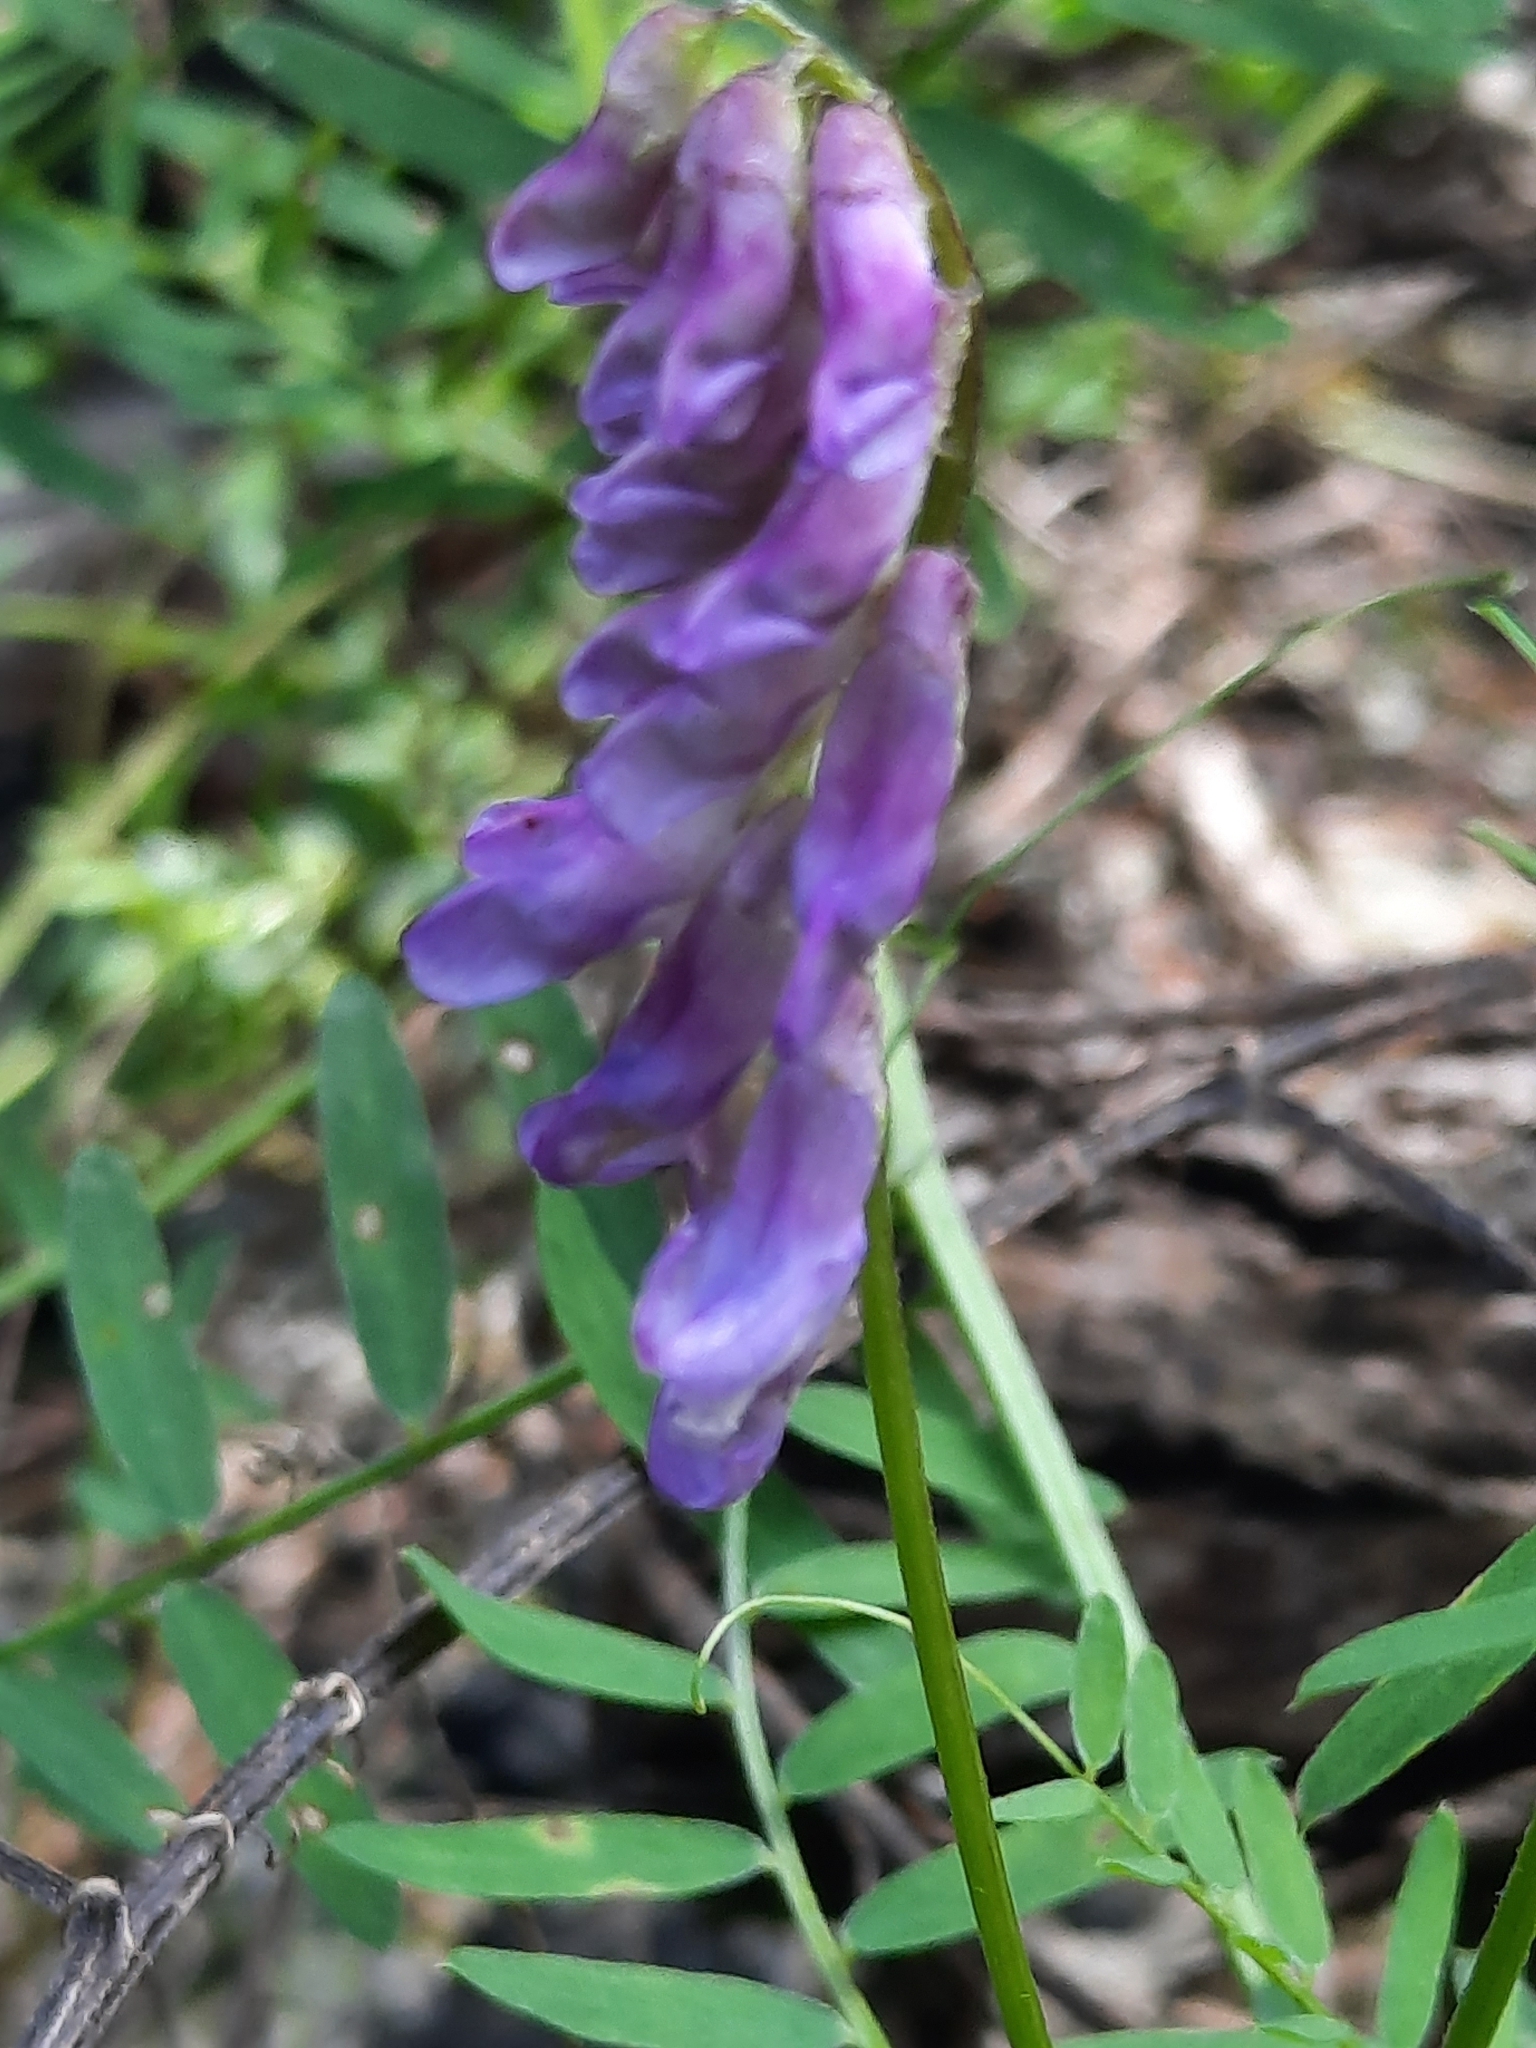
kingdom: Plantae
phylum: Tracheophyta
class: Magnoliopsida
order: Fabales
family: Fabaceae
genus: Vicia
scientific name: Vicia cracca
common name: Bird vetch
